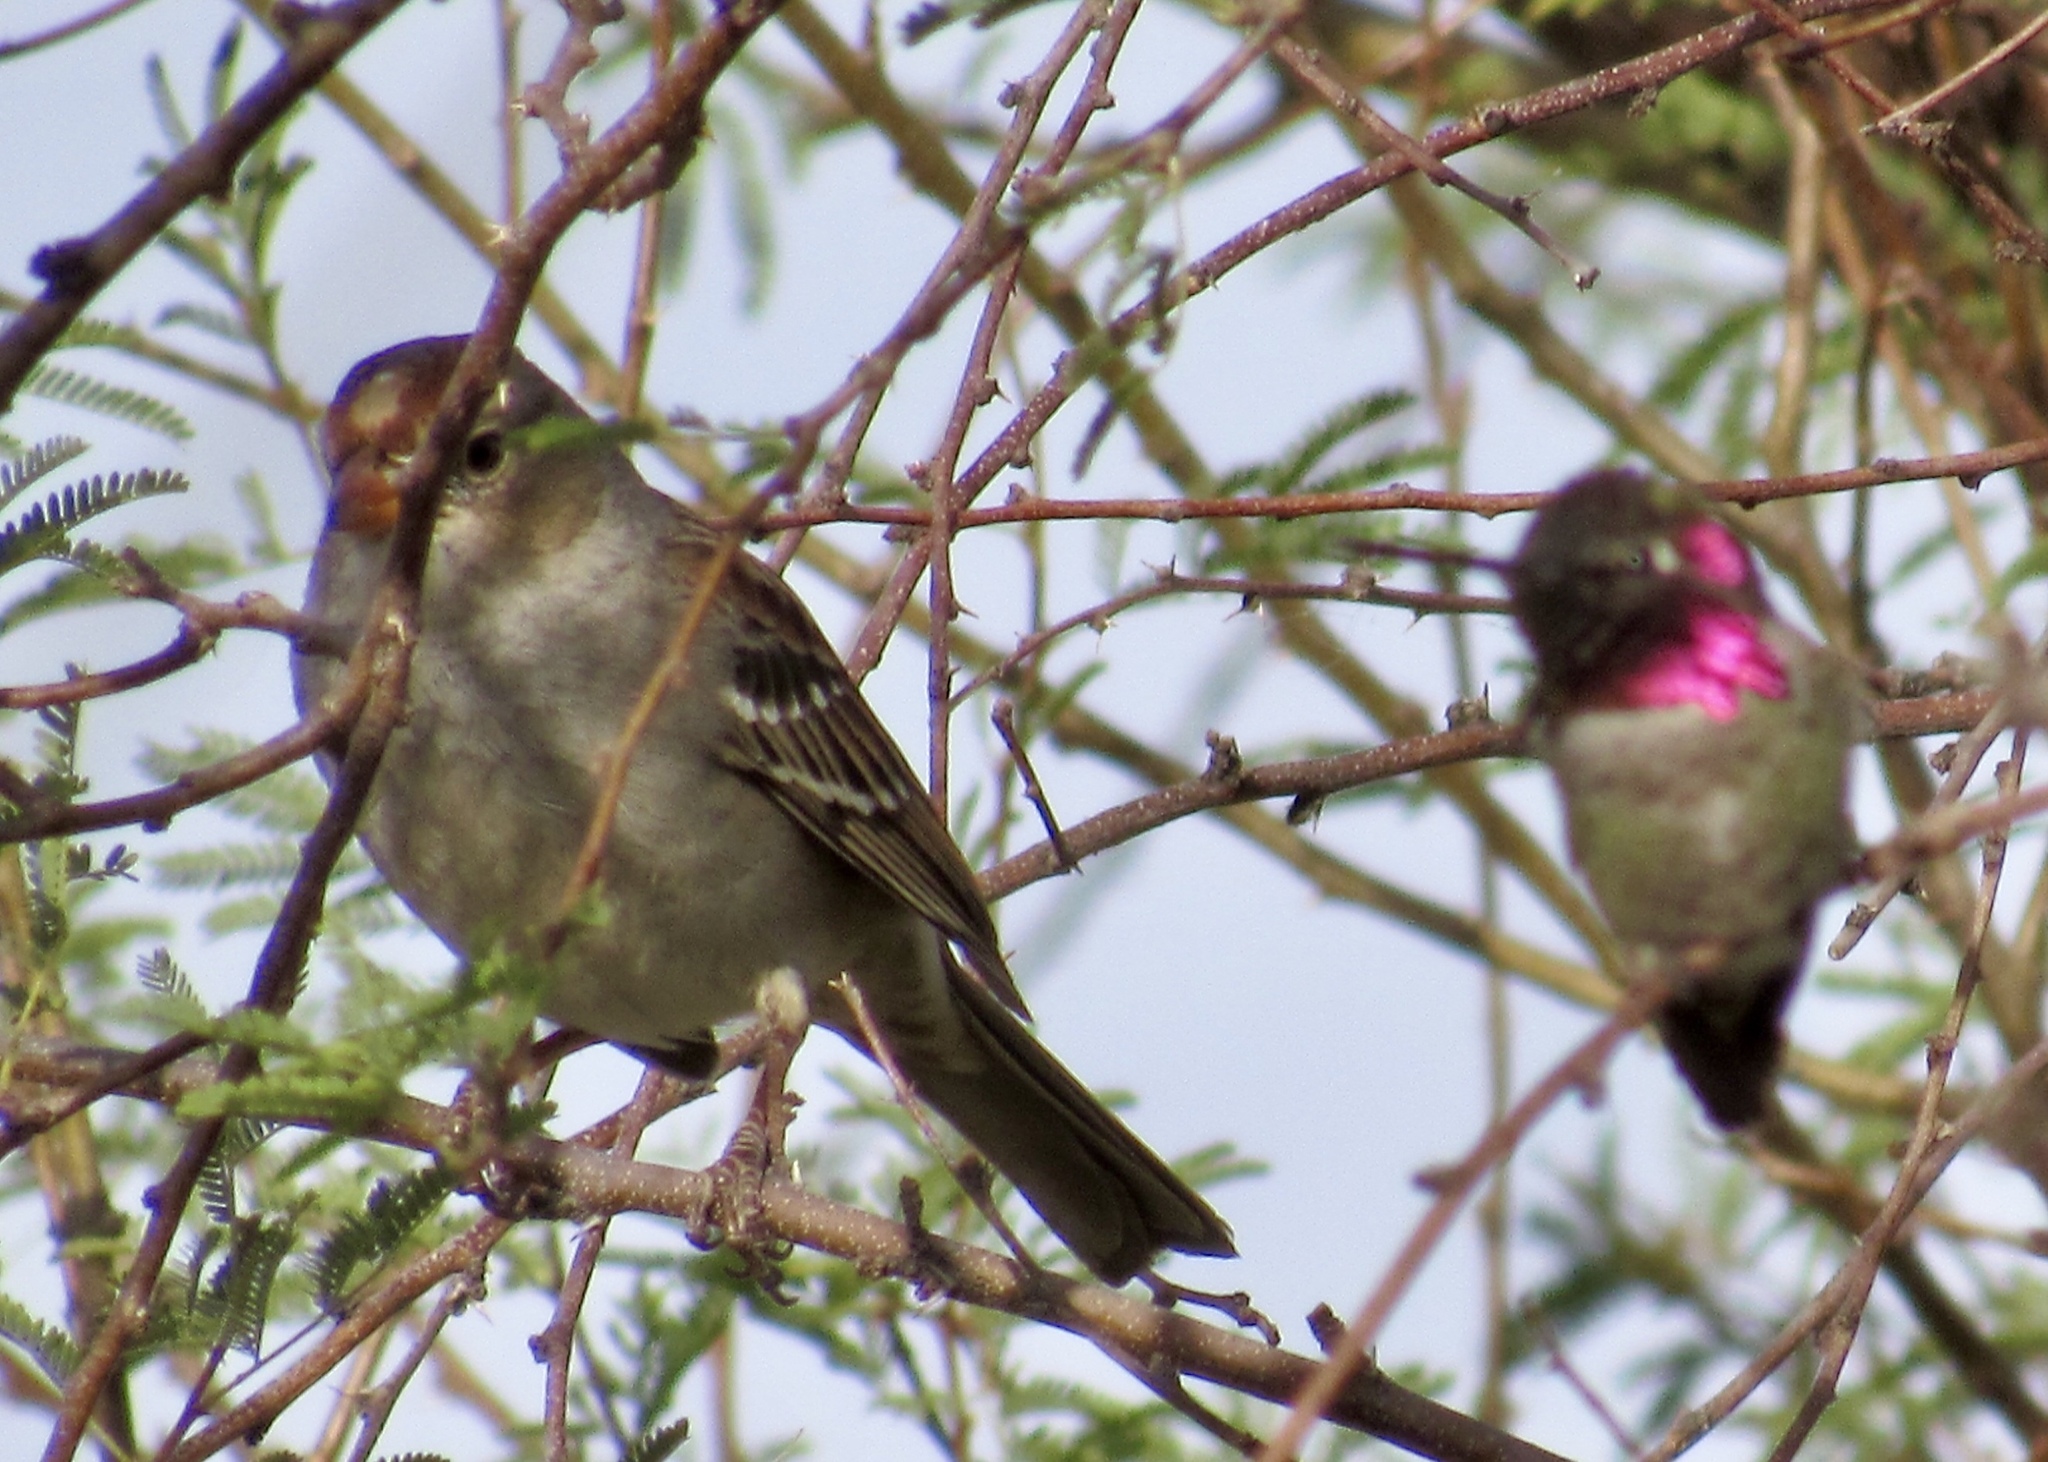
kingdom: Animalia
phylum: Chordata
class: Aves
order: Passeriformes
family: Passerellidae
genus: Zonotrichia
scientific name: Zonotrichia leucophrys
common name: White-crowned sparrow
